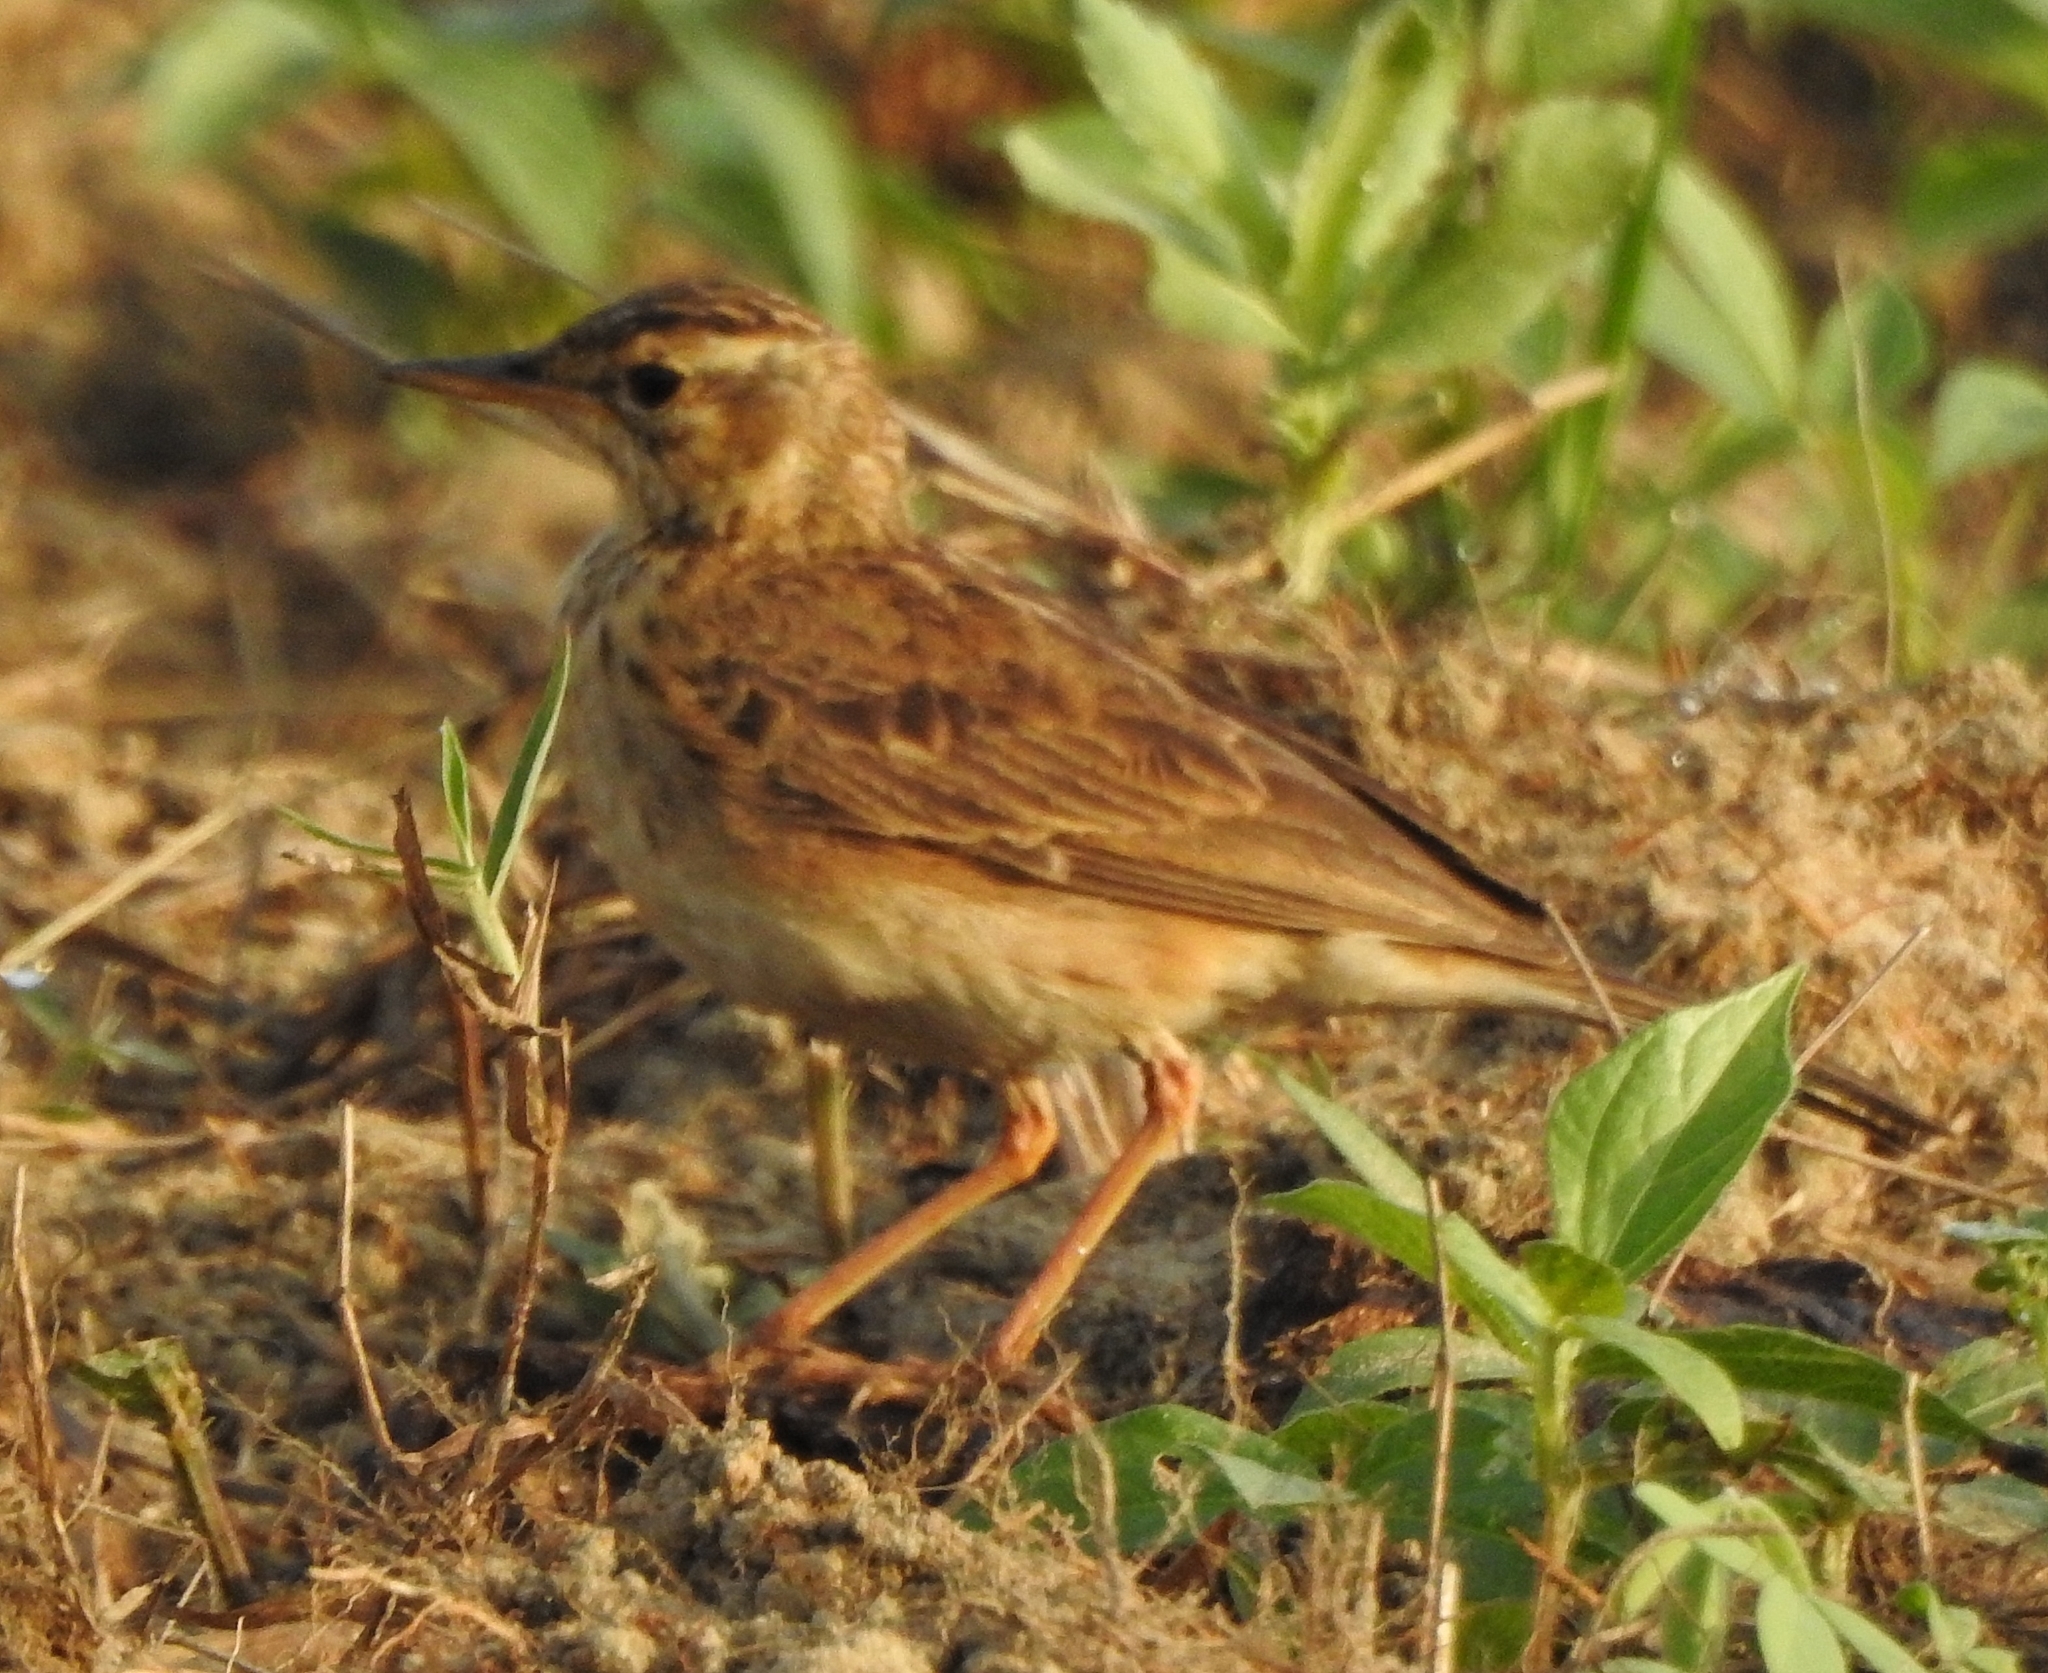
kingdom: Animalia
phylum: Chordata
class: Aves
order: Passeriformes
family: Motacillidae
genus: Anthus
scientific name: Anthus rufulus
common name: Paddyfield pipit
